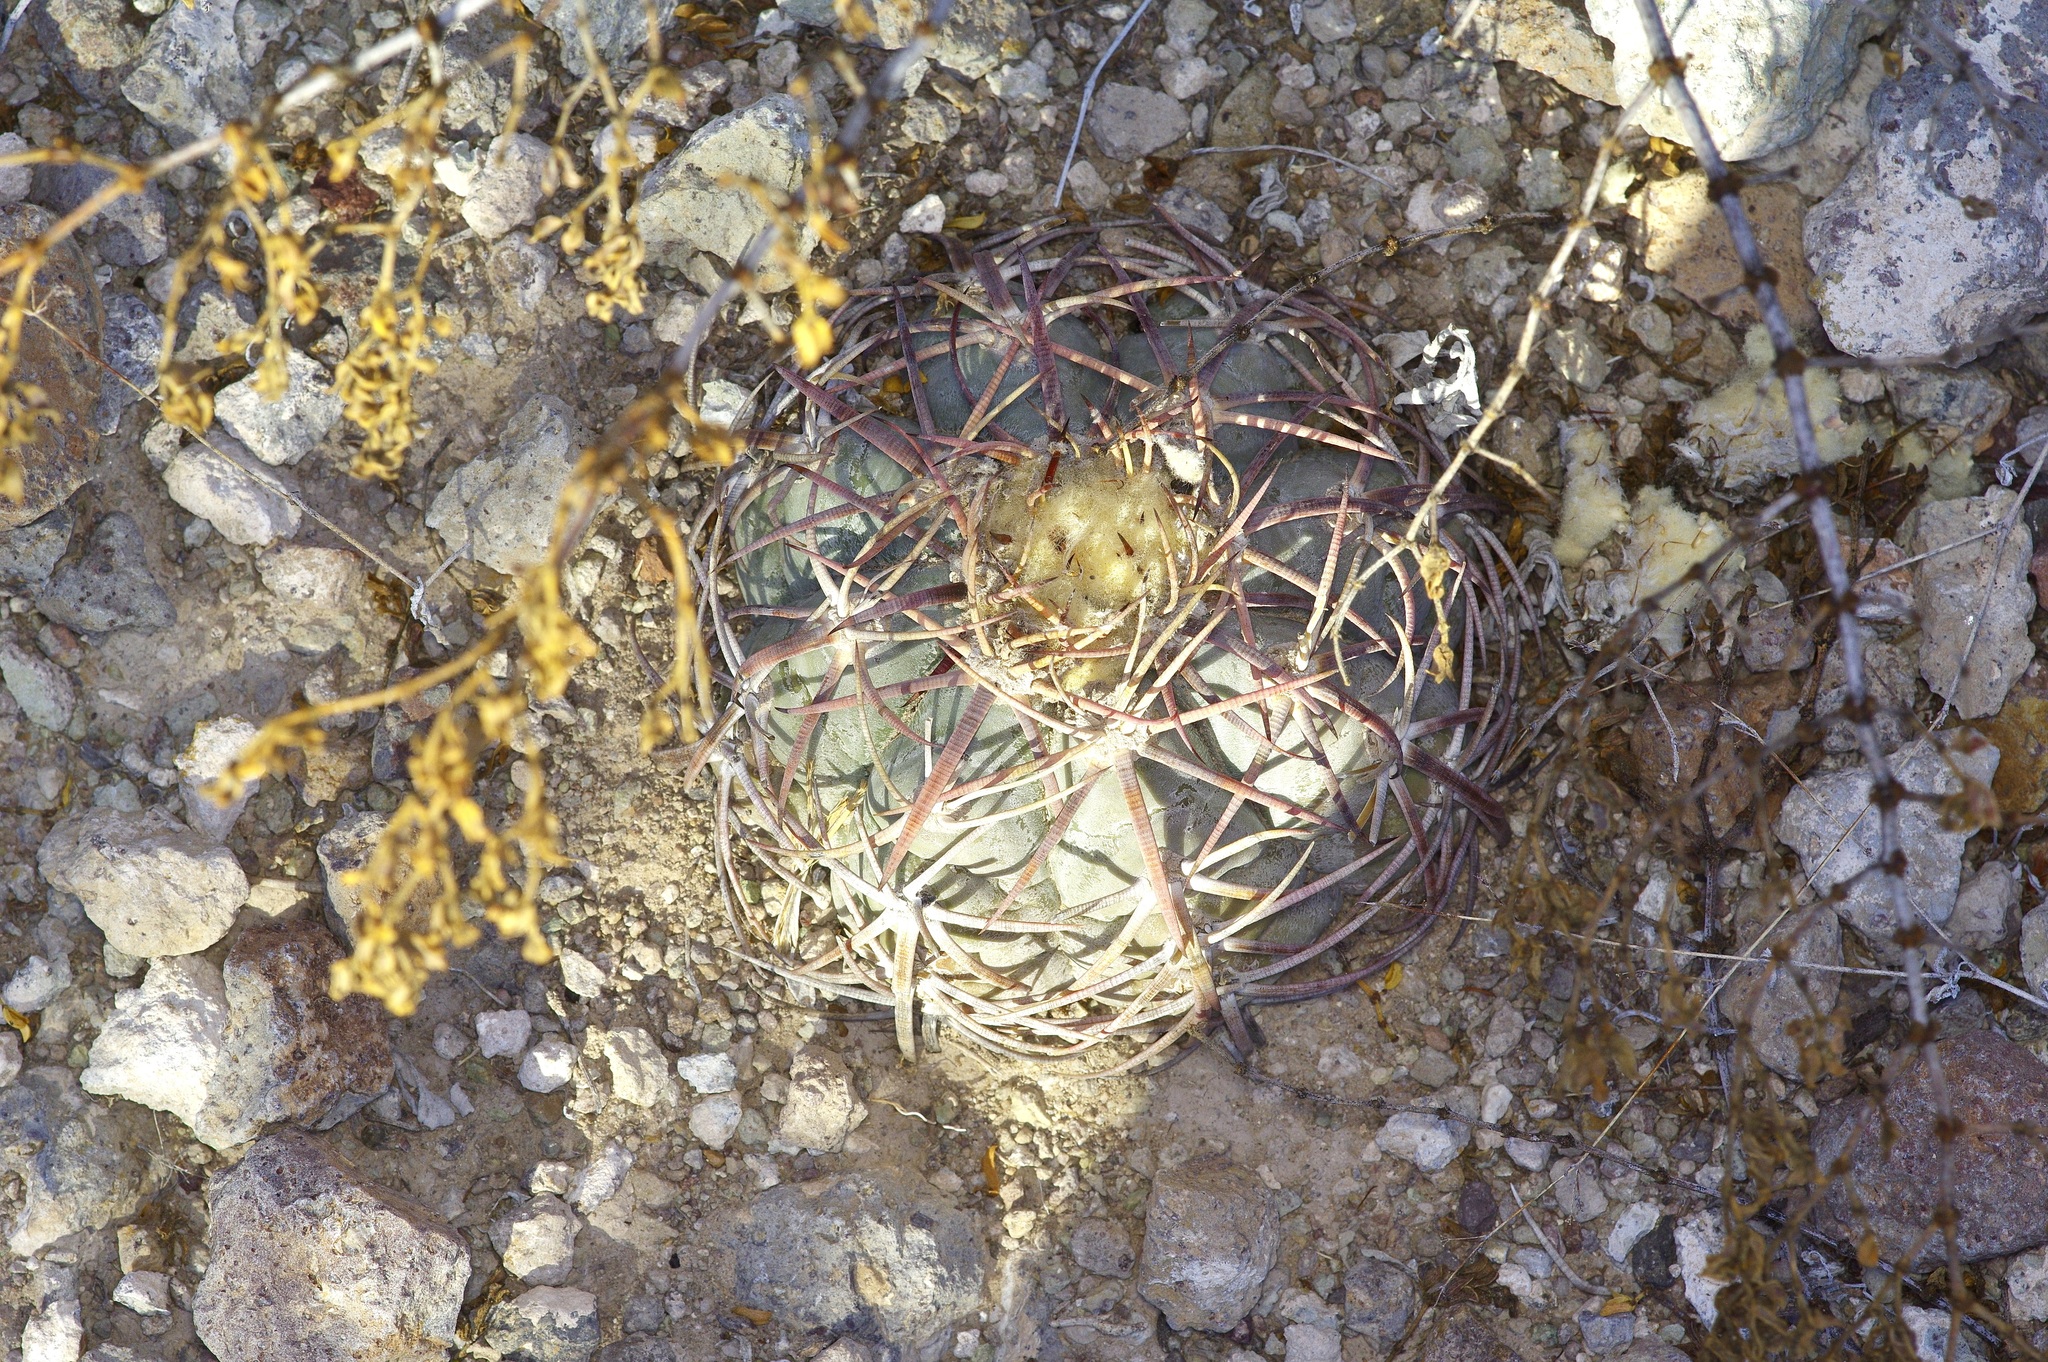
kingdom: Plantae
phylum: Tracheophyta
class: Magnoliopsida
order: Caryophyllales
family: Cactaceae
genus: Echinocactus
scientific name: Echinocactus horizonthalonius
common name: Devilshead
